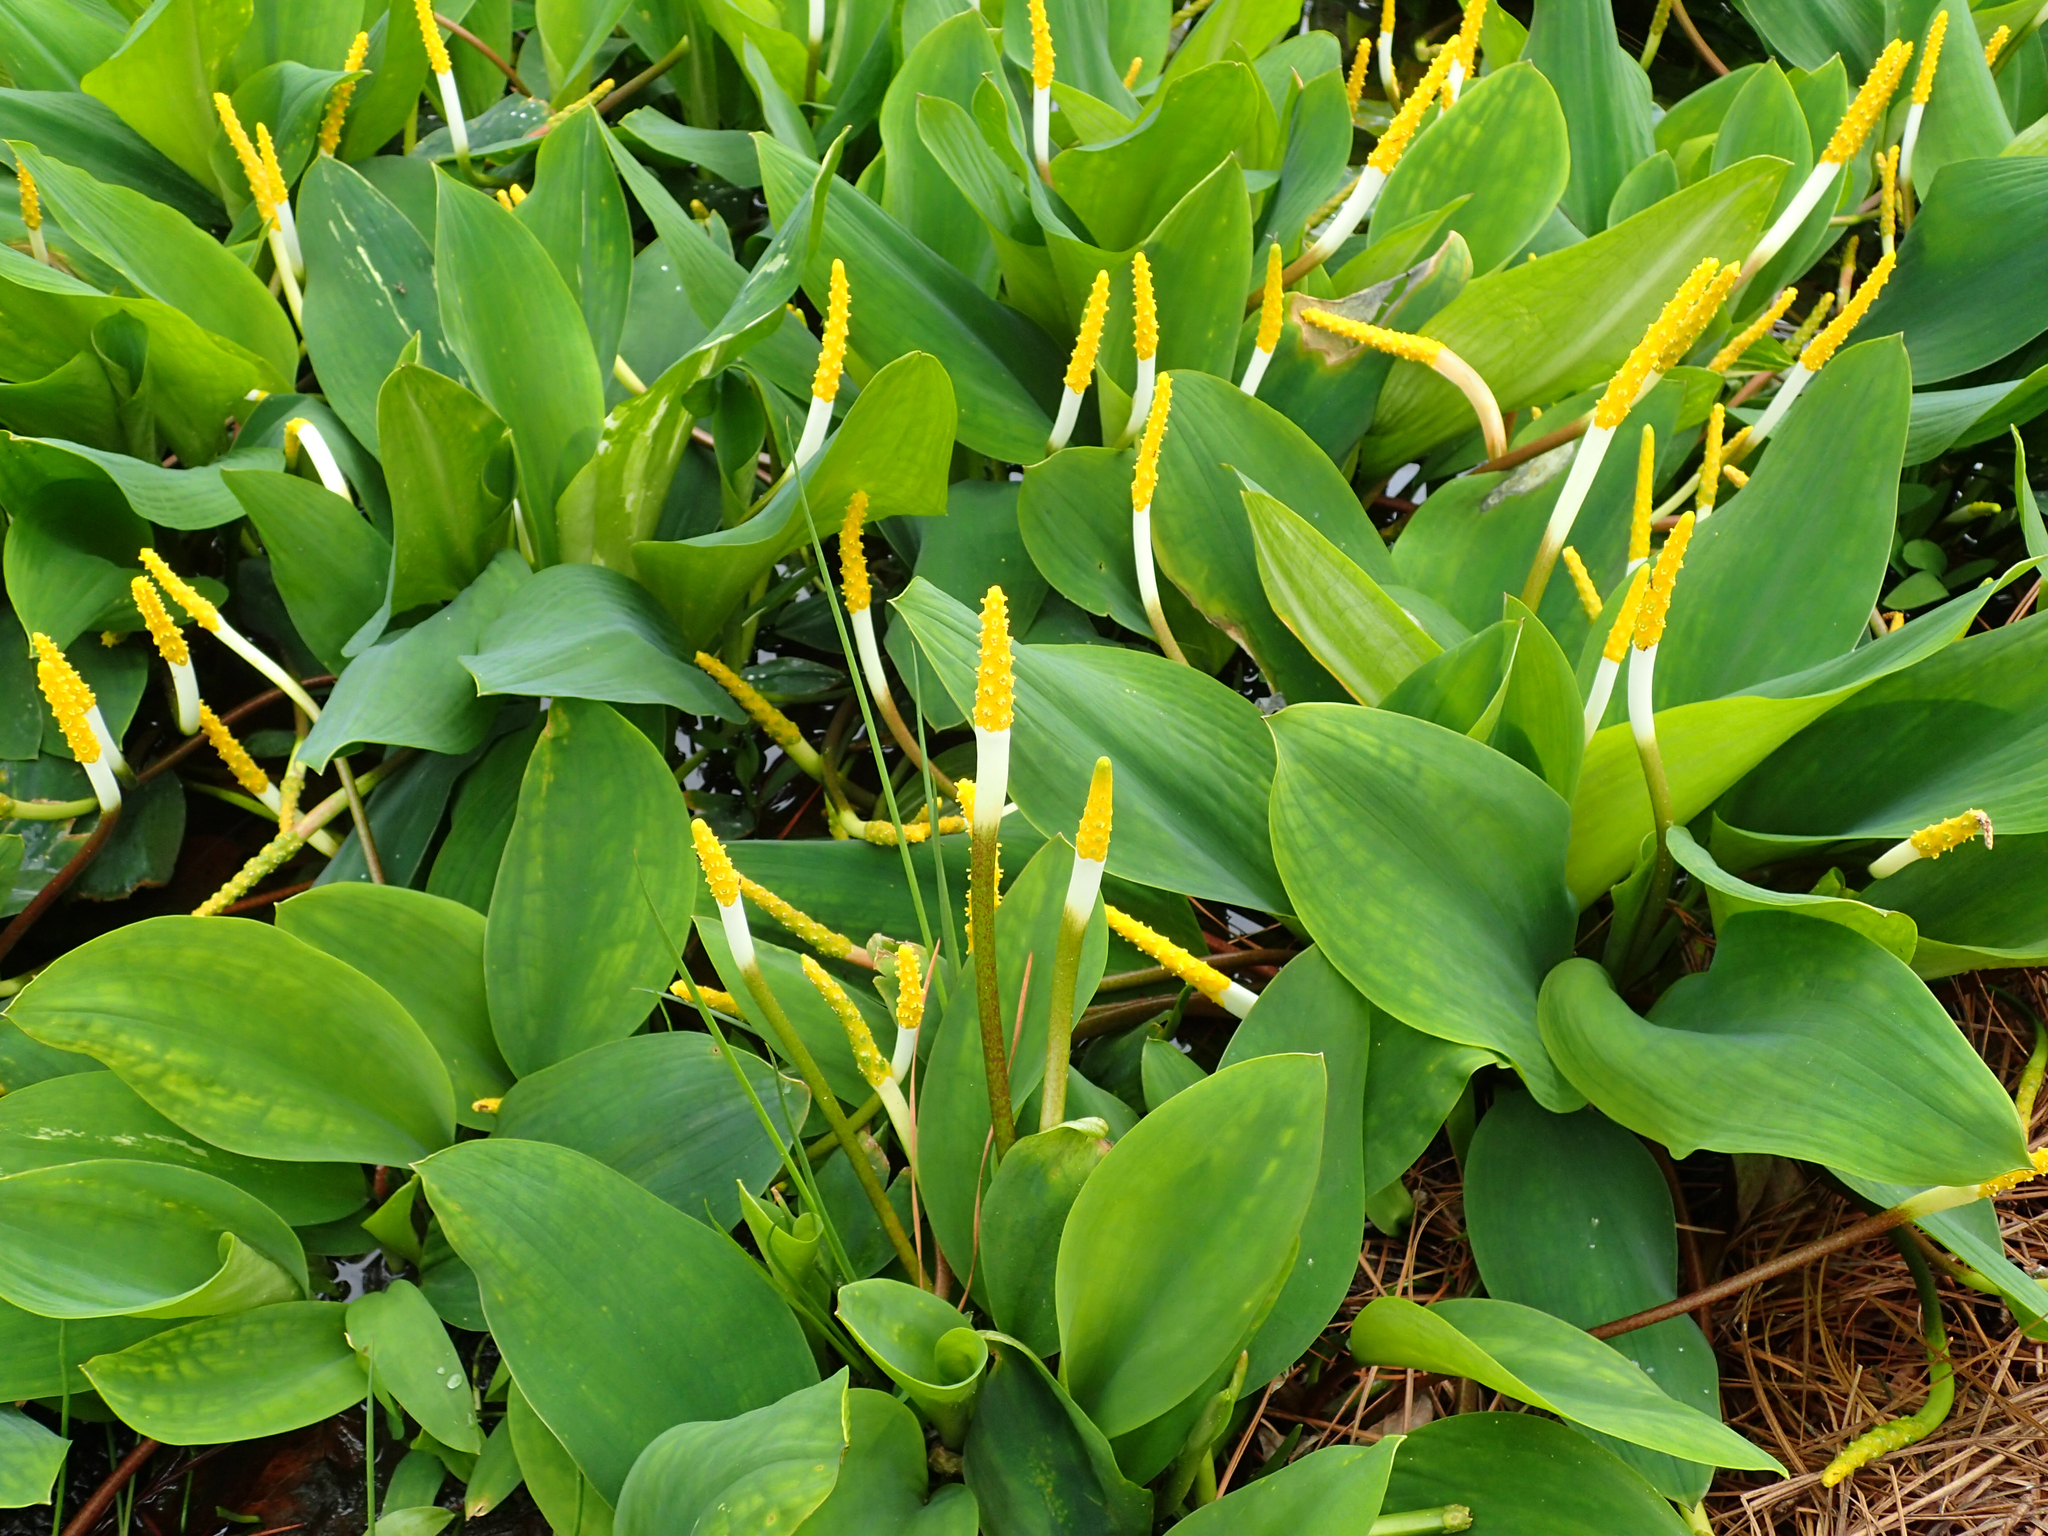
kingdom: Plantae
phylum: Tracheophyta
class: Liliopsida
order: Alismatales
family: Araceae
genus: Orontium
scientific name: Orontium aquaticum
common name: Golden-club
